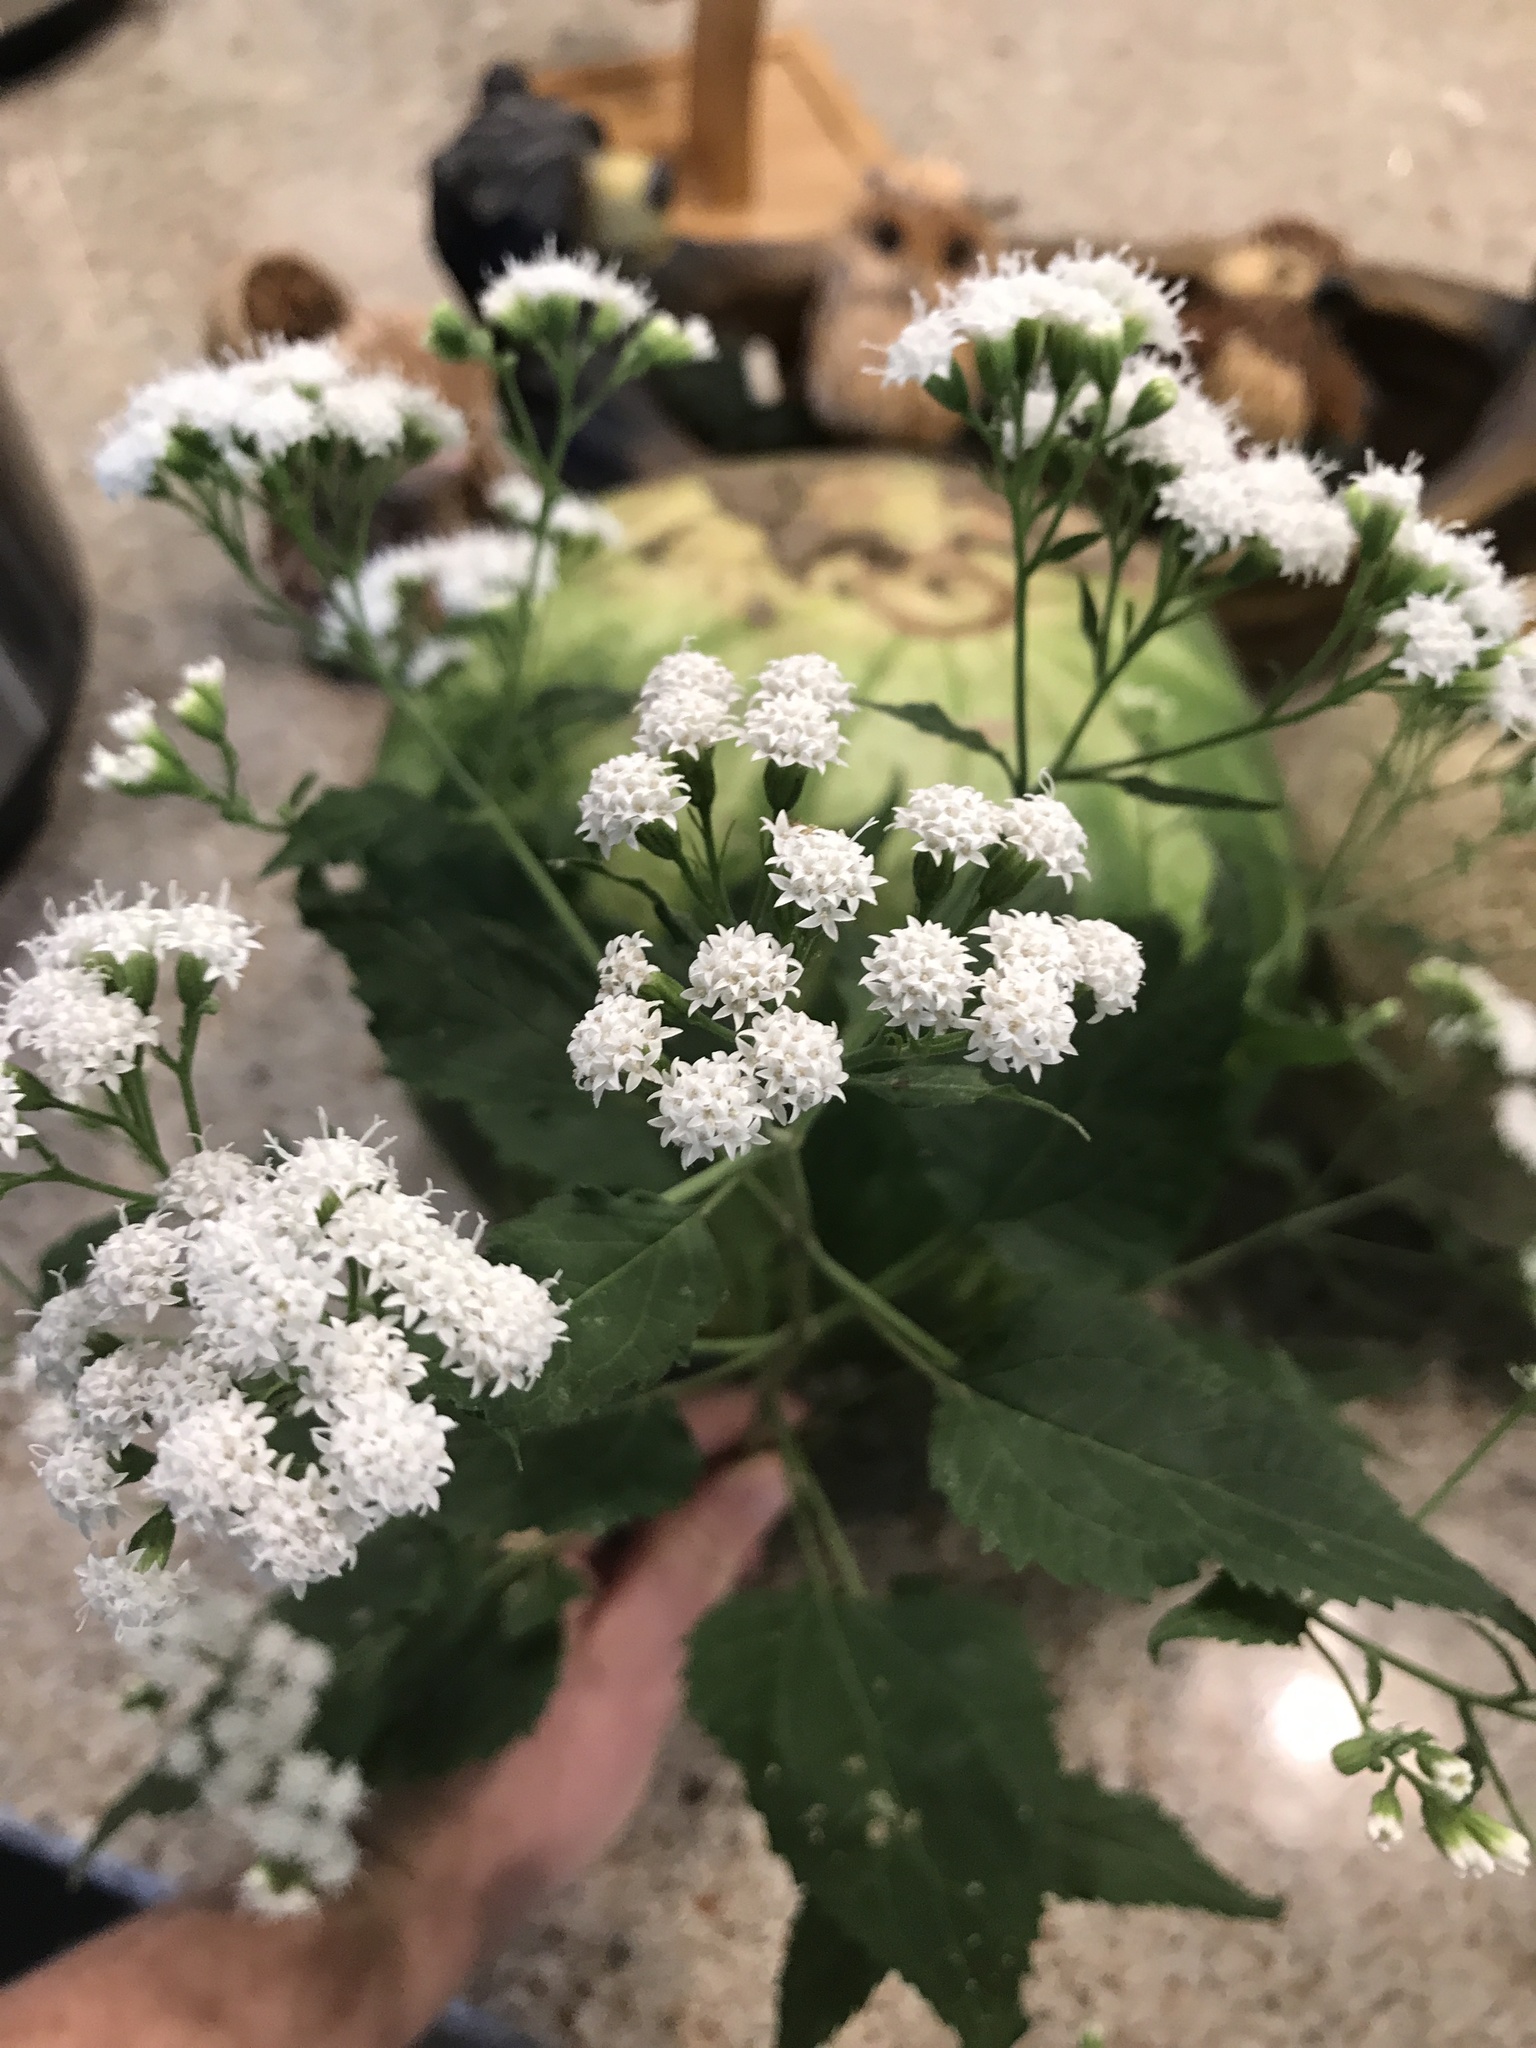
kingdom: Plantae
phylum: Tracheophyta
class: Magnoliopsida
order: Asterales
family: Asteraceae
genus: Ageratina
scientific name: Ageratina altissima
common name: White snakeroot
